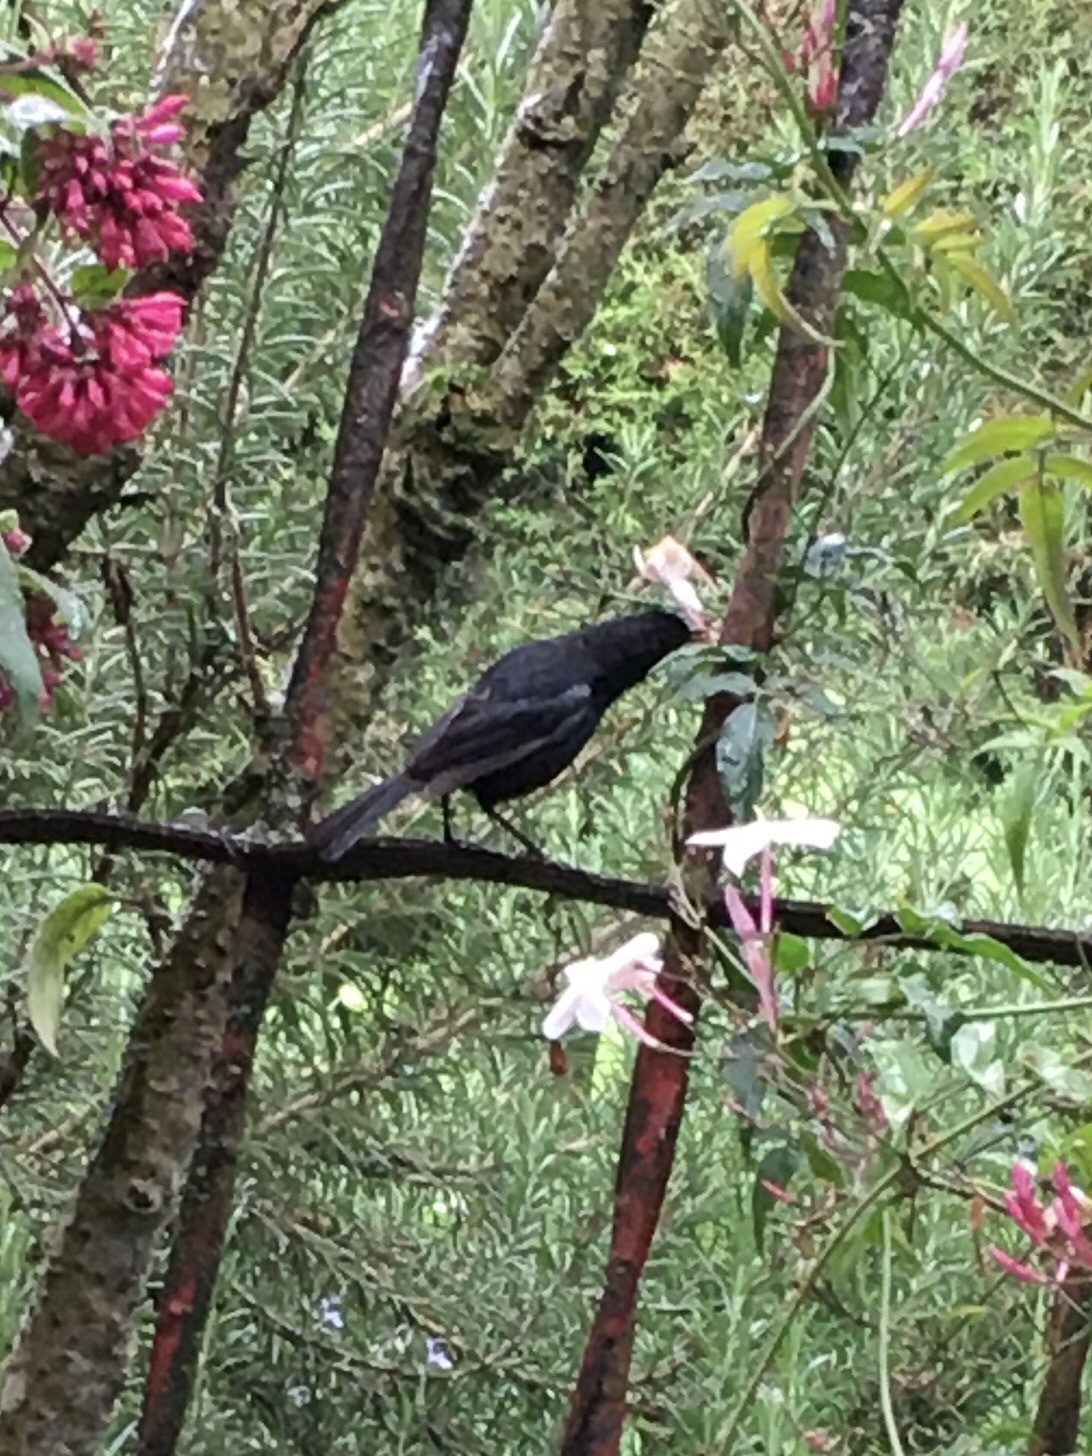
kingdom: Animalia
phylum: Chordata
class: Aves
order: Passeriformes
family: Thraupidae
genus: Diglossa
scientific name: Diglossa humeralis
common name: Black flowerpiercer
